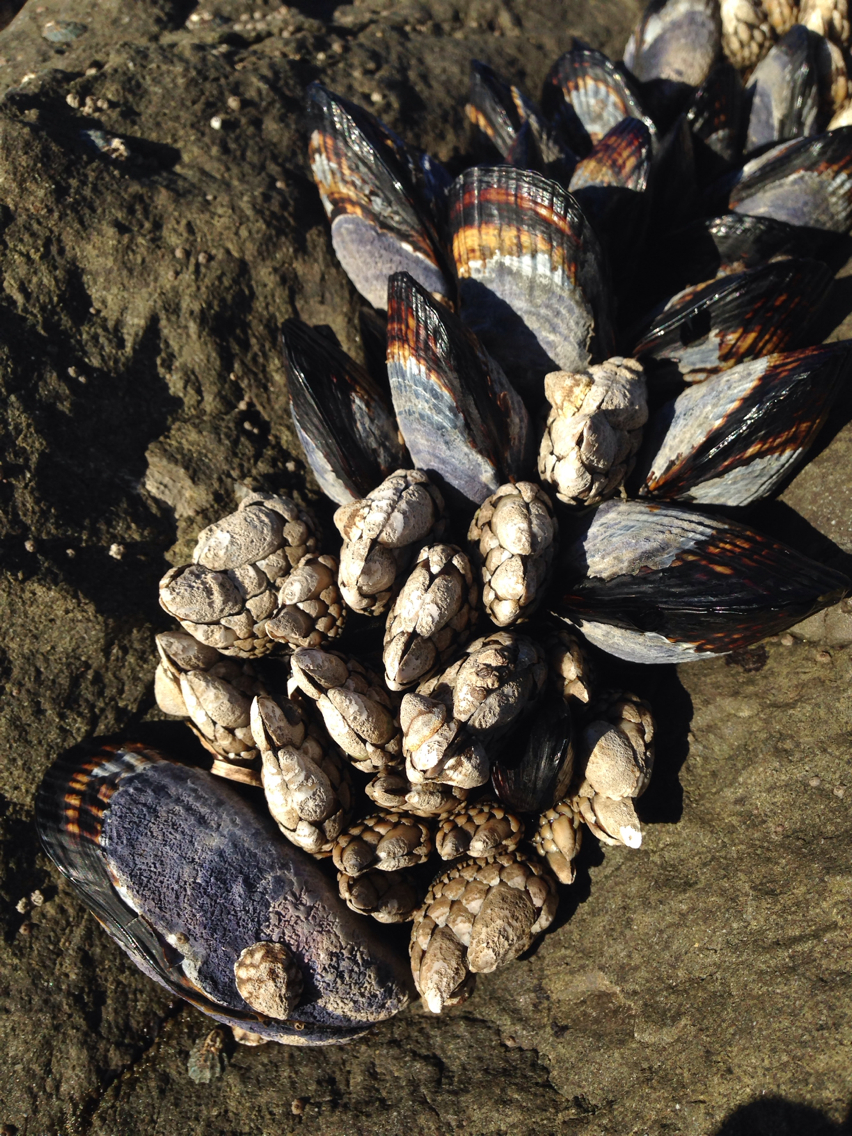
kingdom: Animalia
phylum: Mollusca
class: Bivalvia
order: Mytilida
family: Mytilidae
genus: Mytilus
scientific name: Mytilus californianus
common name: California mussel
